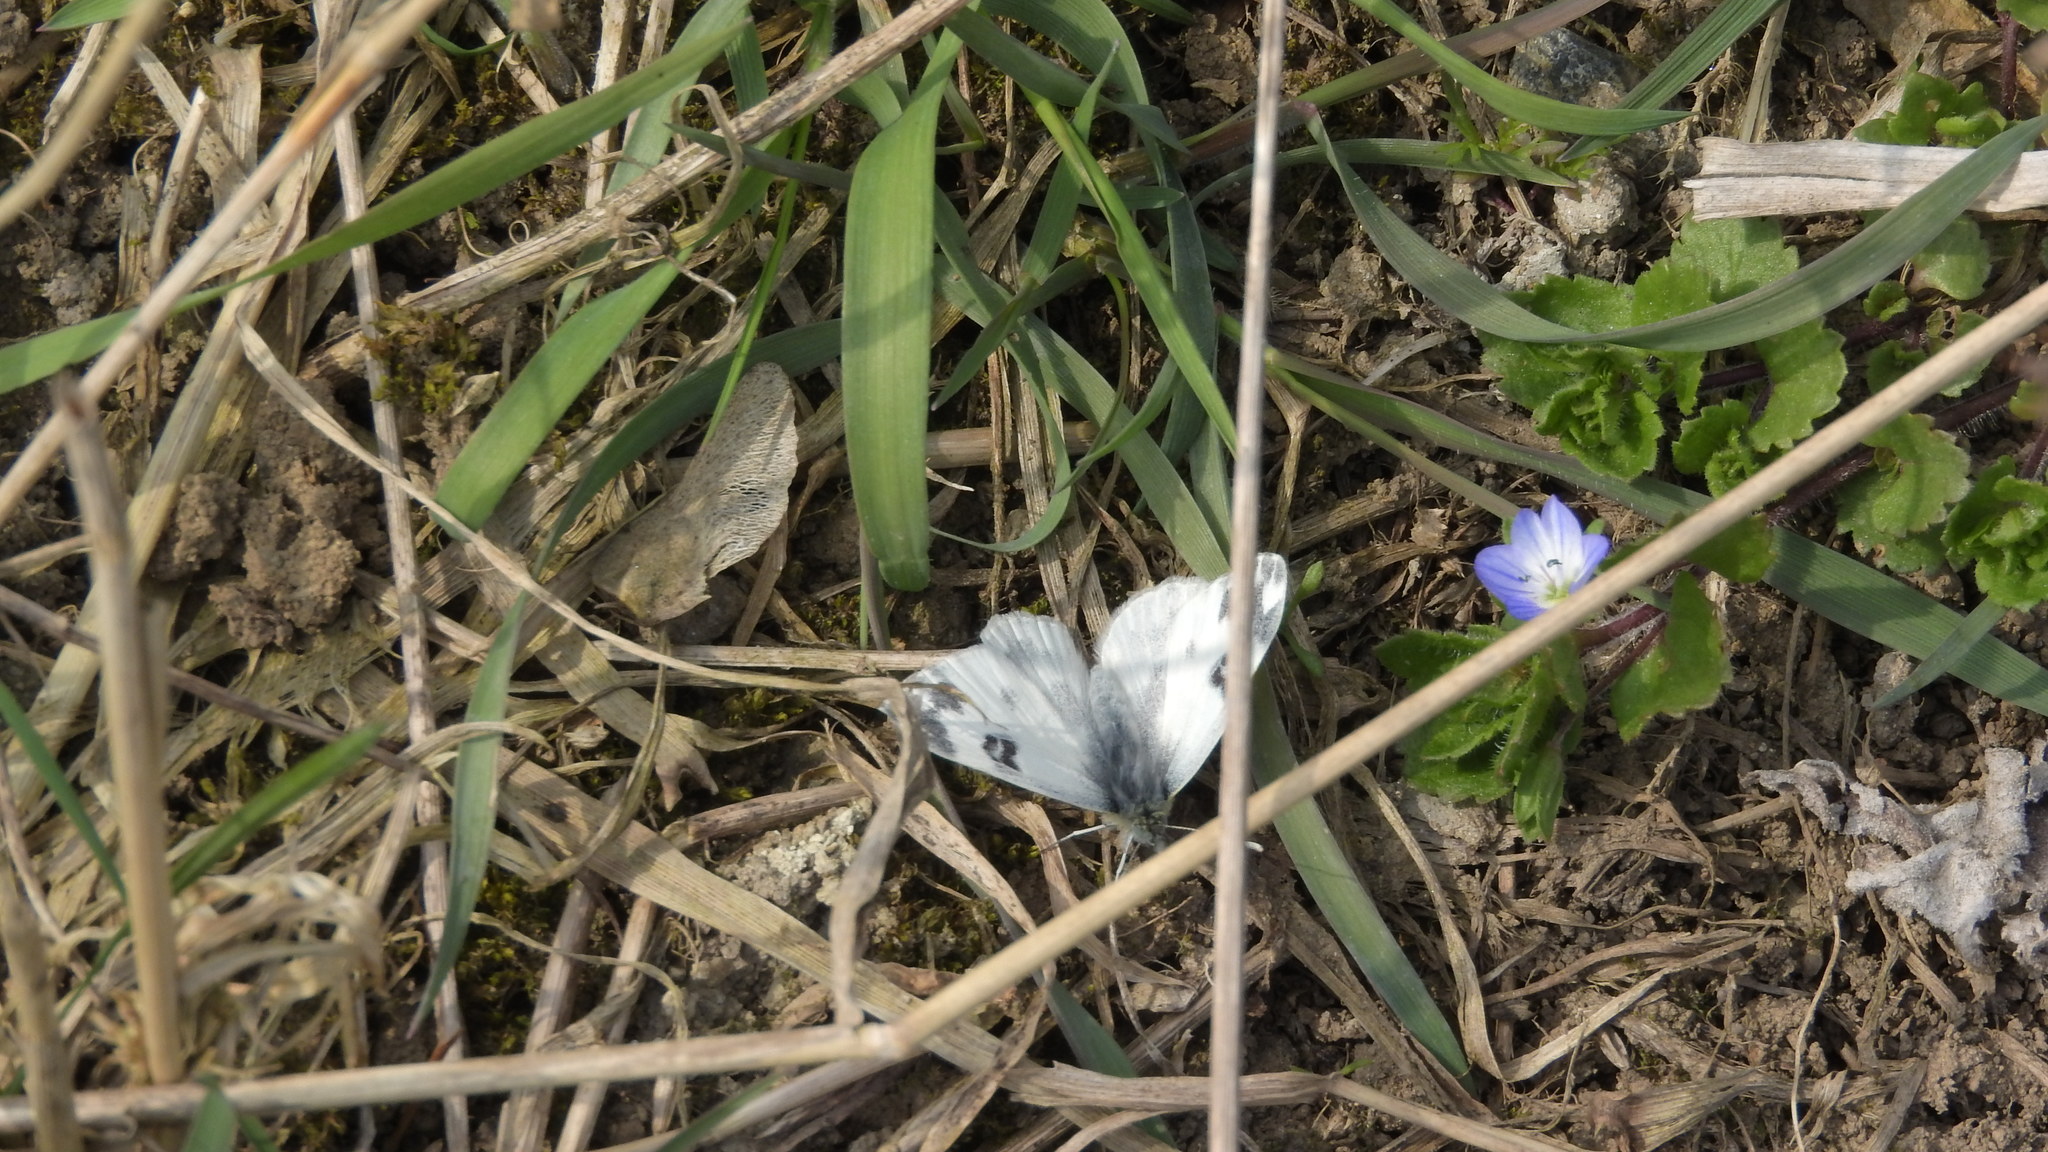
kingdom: Animalia
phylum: Arthropoda
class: Insecta
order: Lepidoptera
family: Pieridae
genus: Pontia
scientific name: Pontia edusa
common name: Eastern bath white
